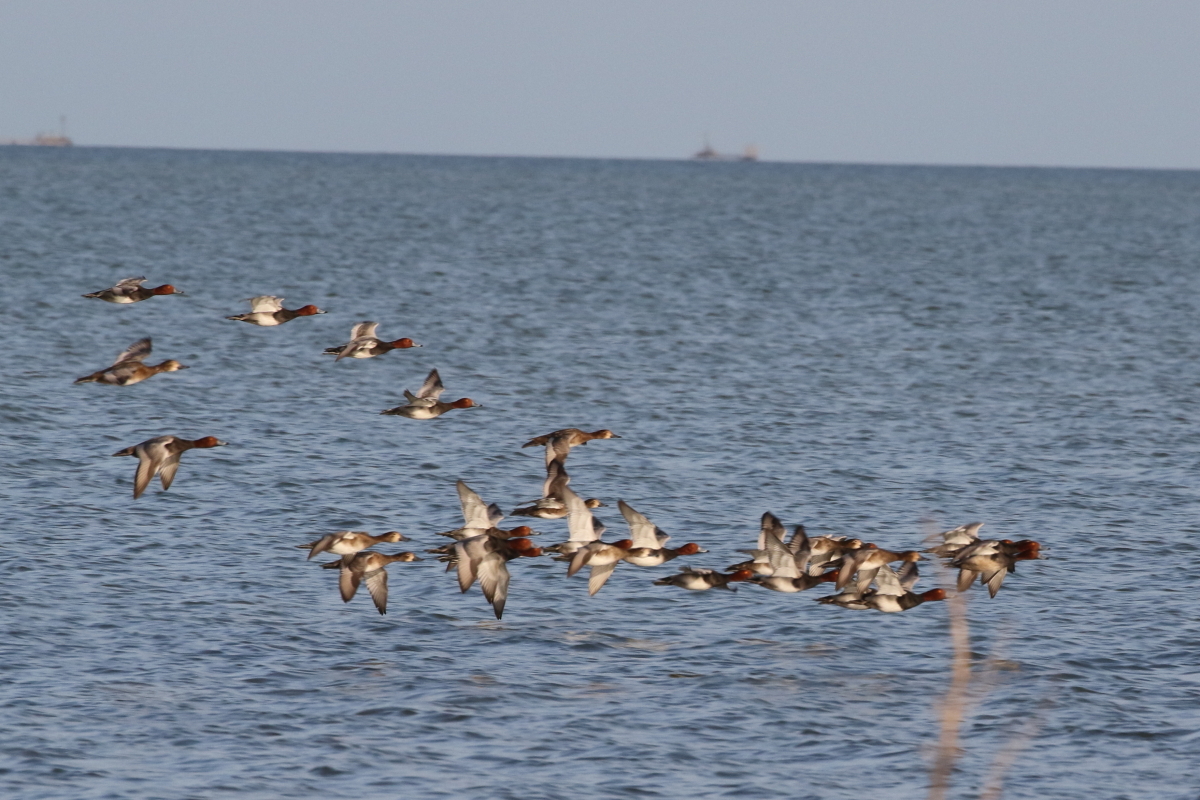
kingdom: Animalia
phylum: Chordata
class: Aves
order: Anseriformes
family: Anatidae
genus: Aythya
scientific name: Aythya americana
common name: Redhead
